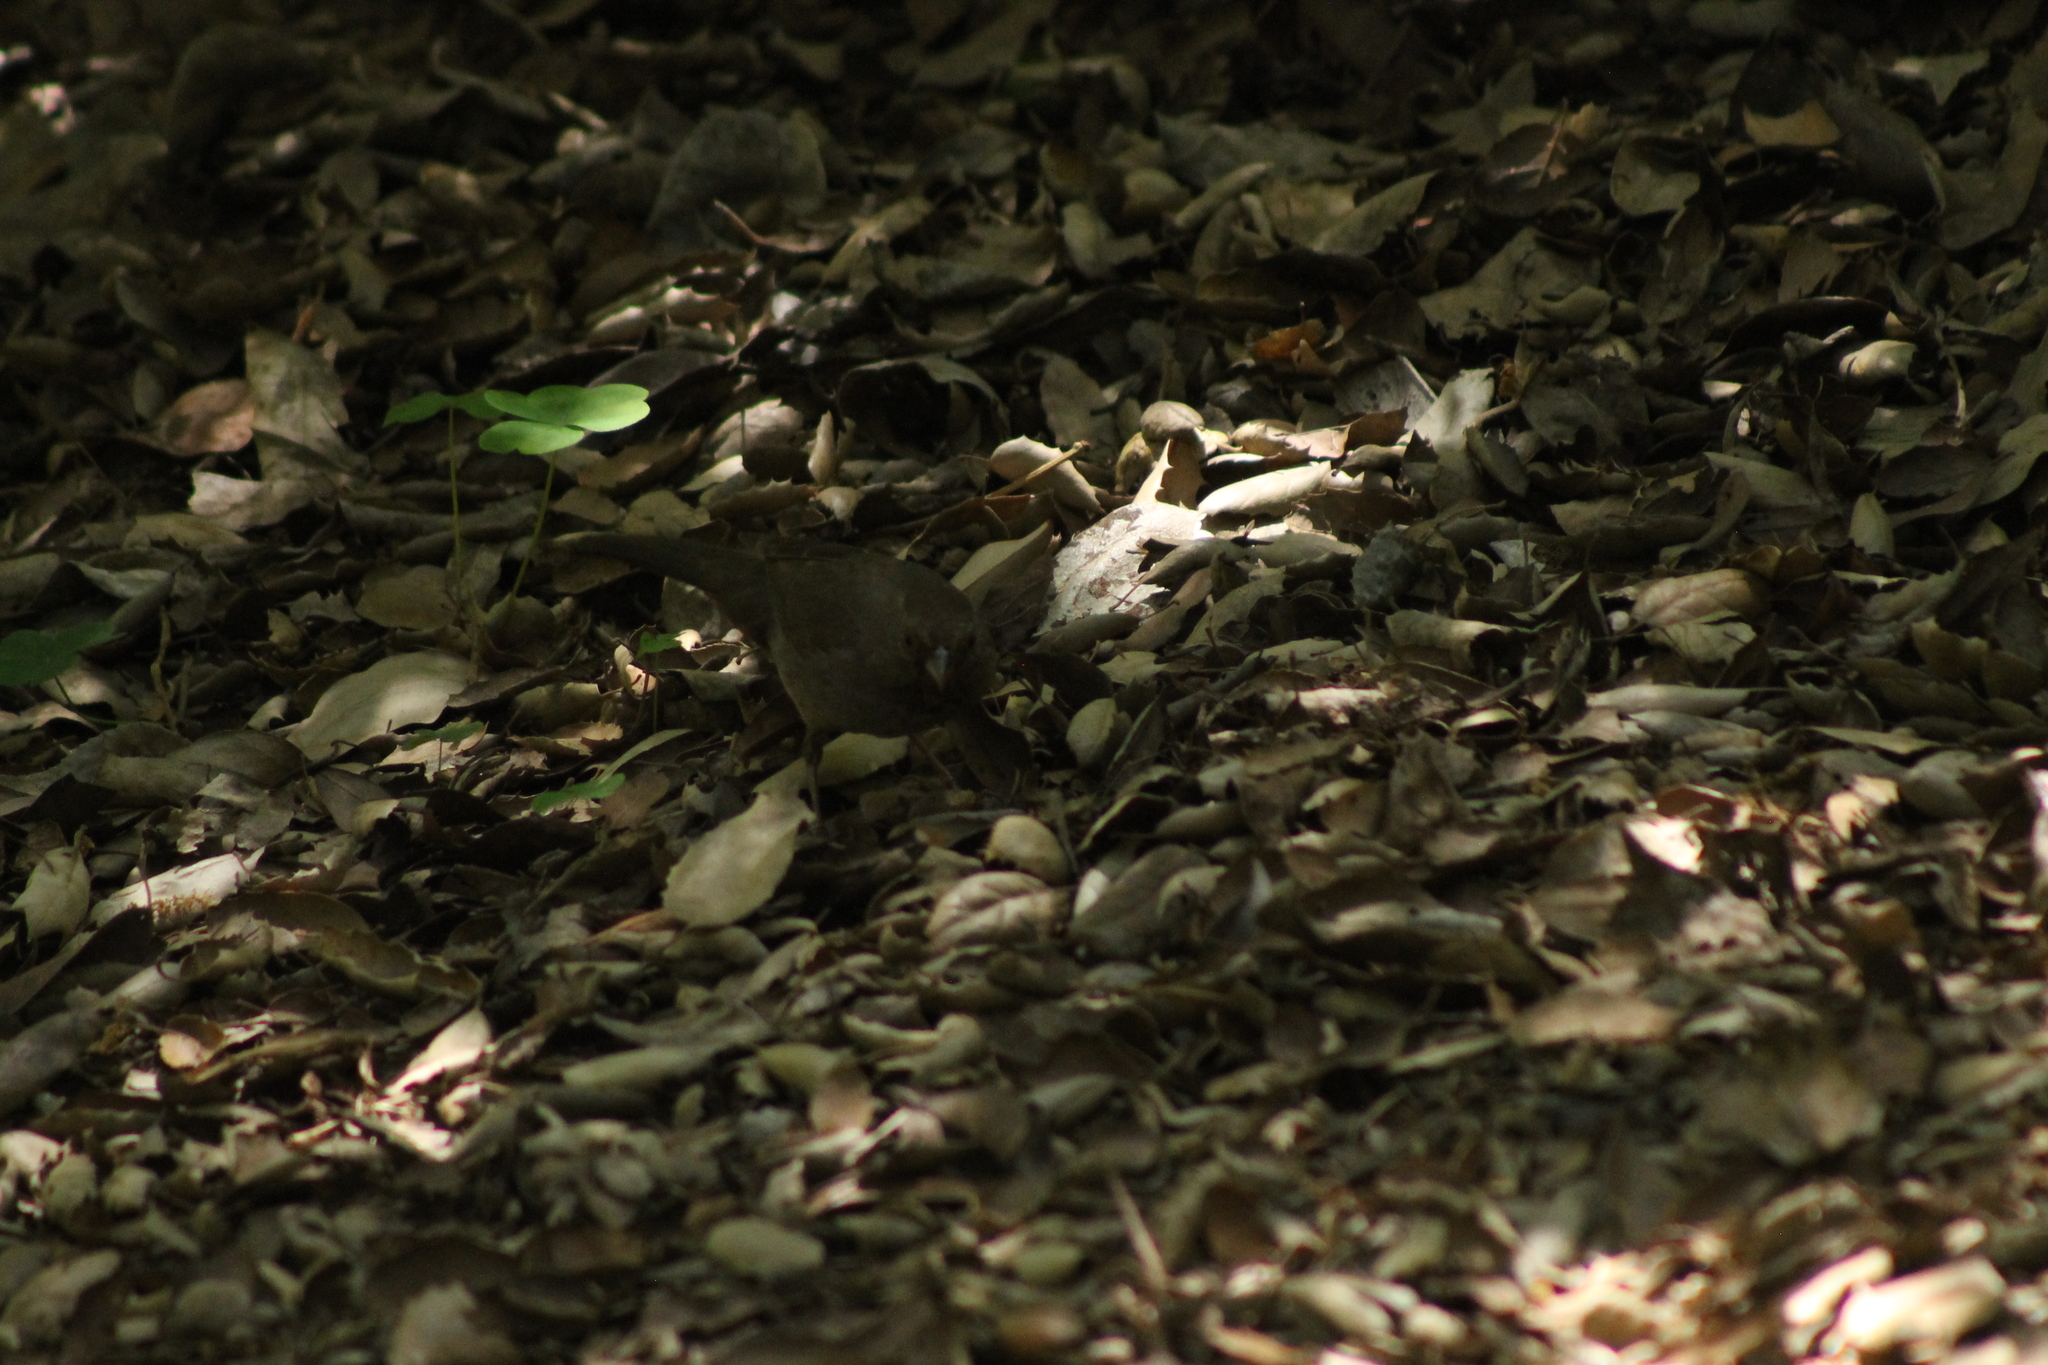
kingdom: Animalia
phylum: Chordata
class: Aves
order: Passeriformes
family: Passerellidae
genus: Melozone
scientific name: Melozone crissalis
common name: California towhee
